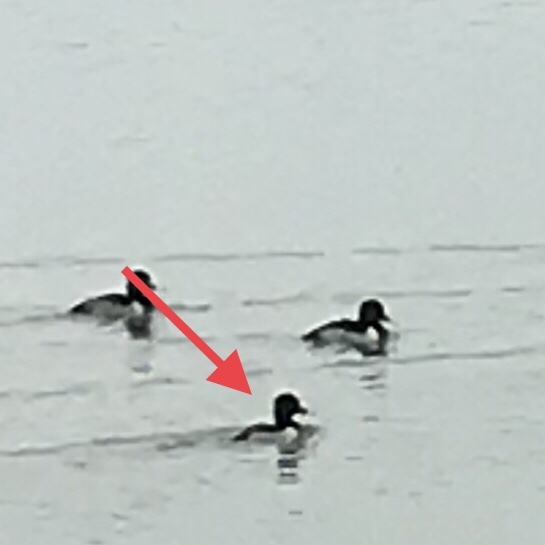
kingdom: Animalia
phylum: Chordata
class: Aves
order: Anseriformes
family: Anatidae
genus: Aythya
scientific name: Aythya collaris
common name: Ring-necked duck
